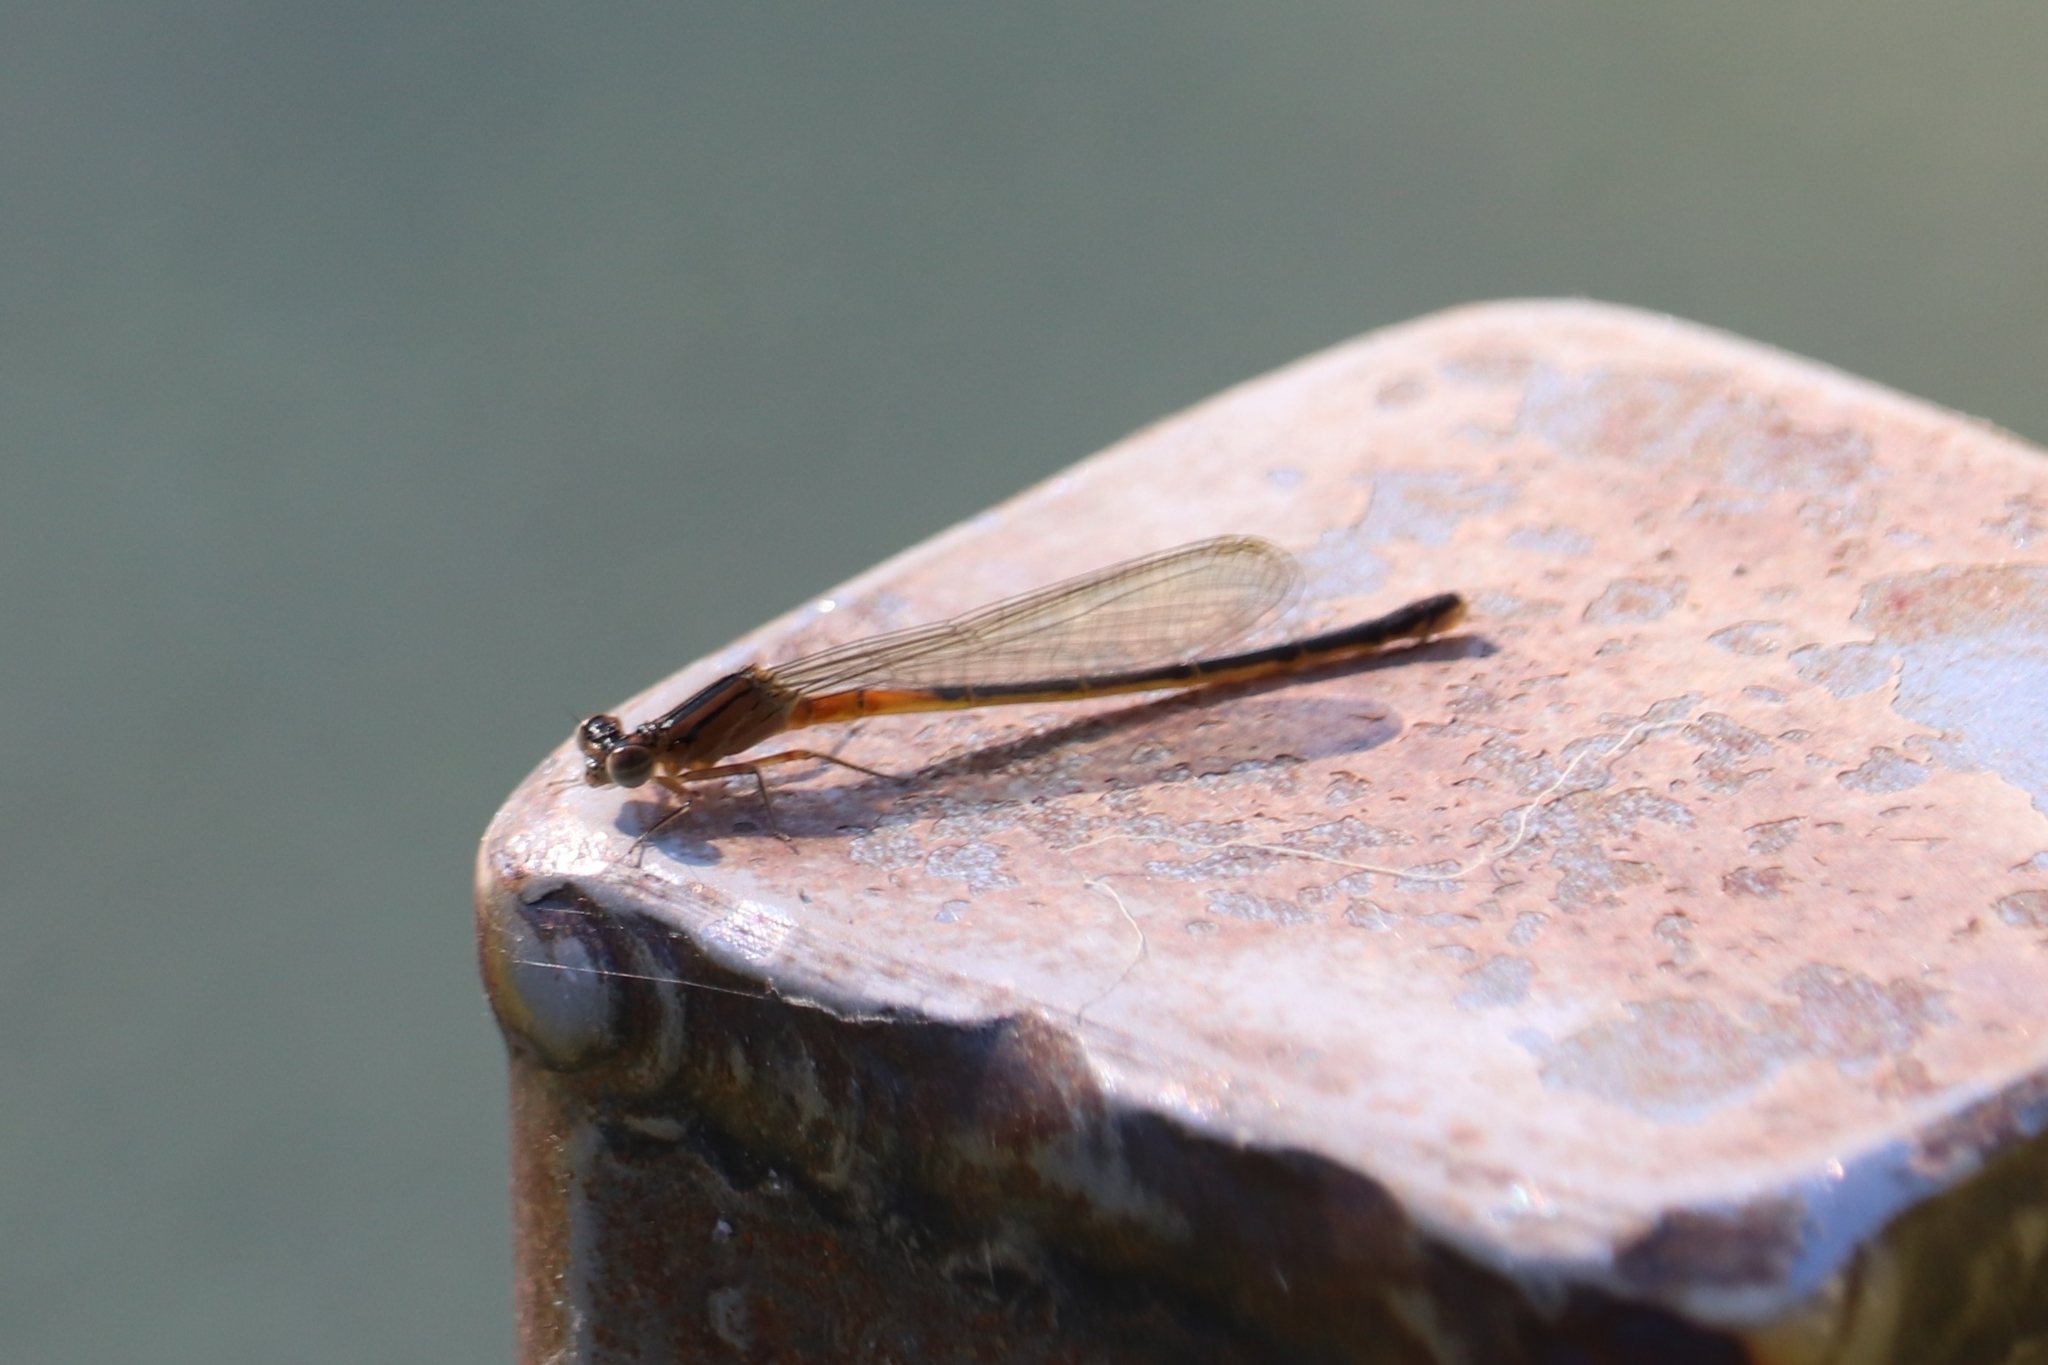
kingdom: Animalia
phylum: Arthropoda
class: Insecta
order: Odonata
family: Coenagrionidae
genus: Ischnura
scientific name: Ischnura verticalis
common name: Eastern forktail
